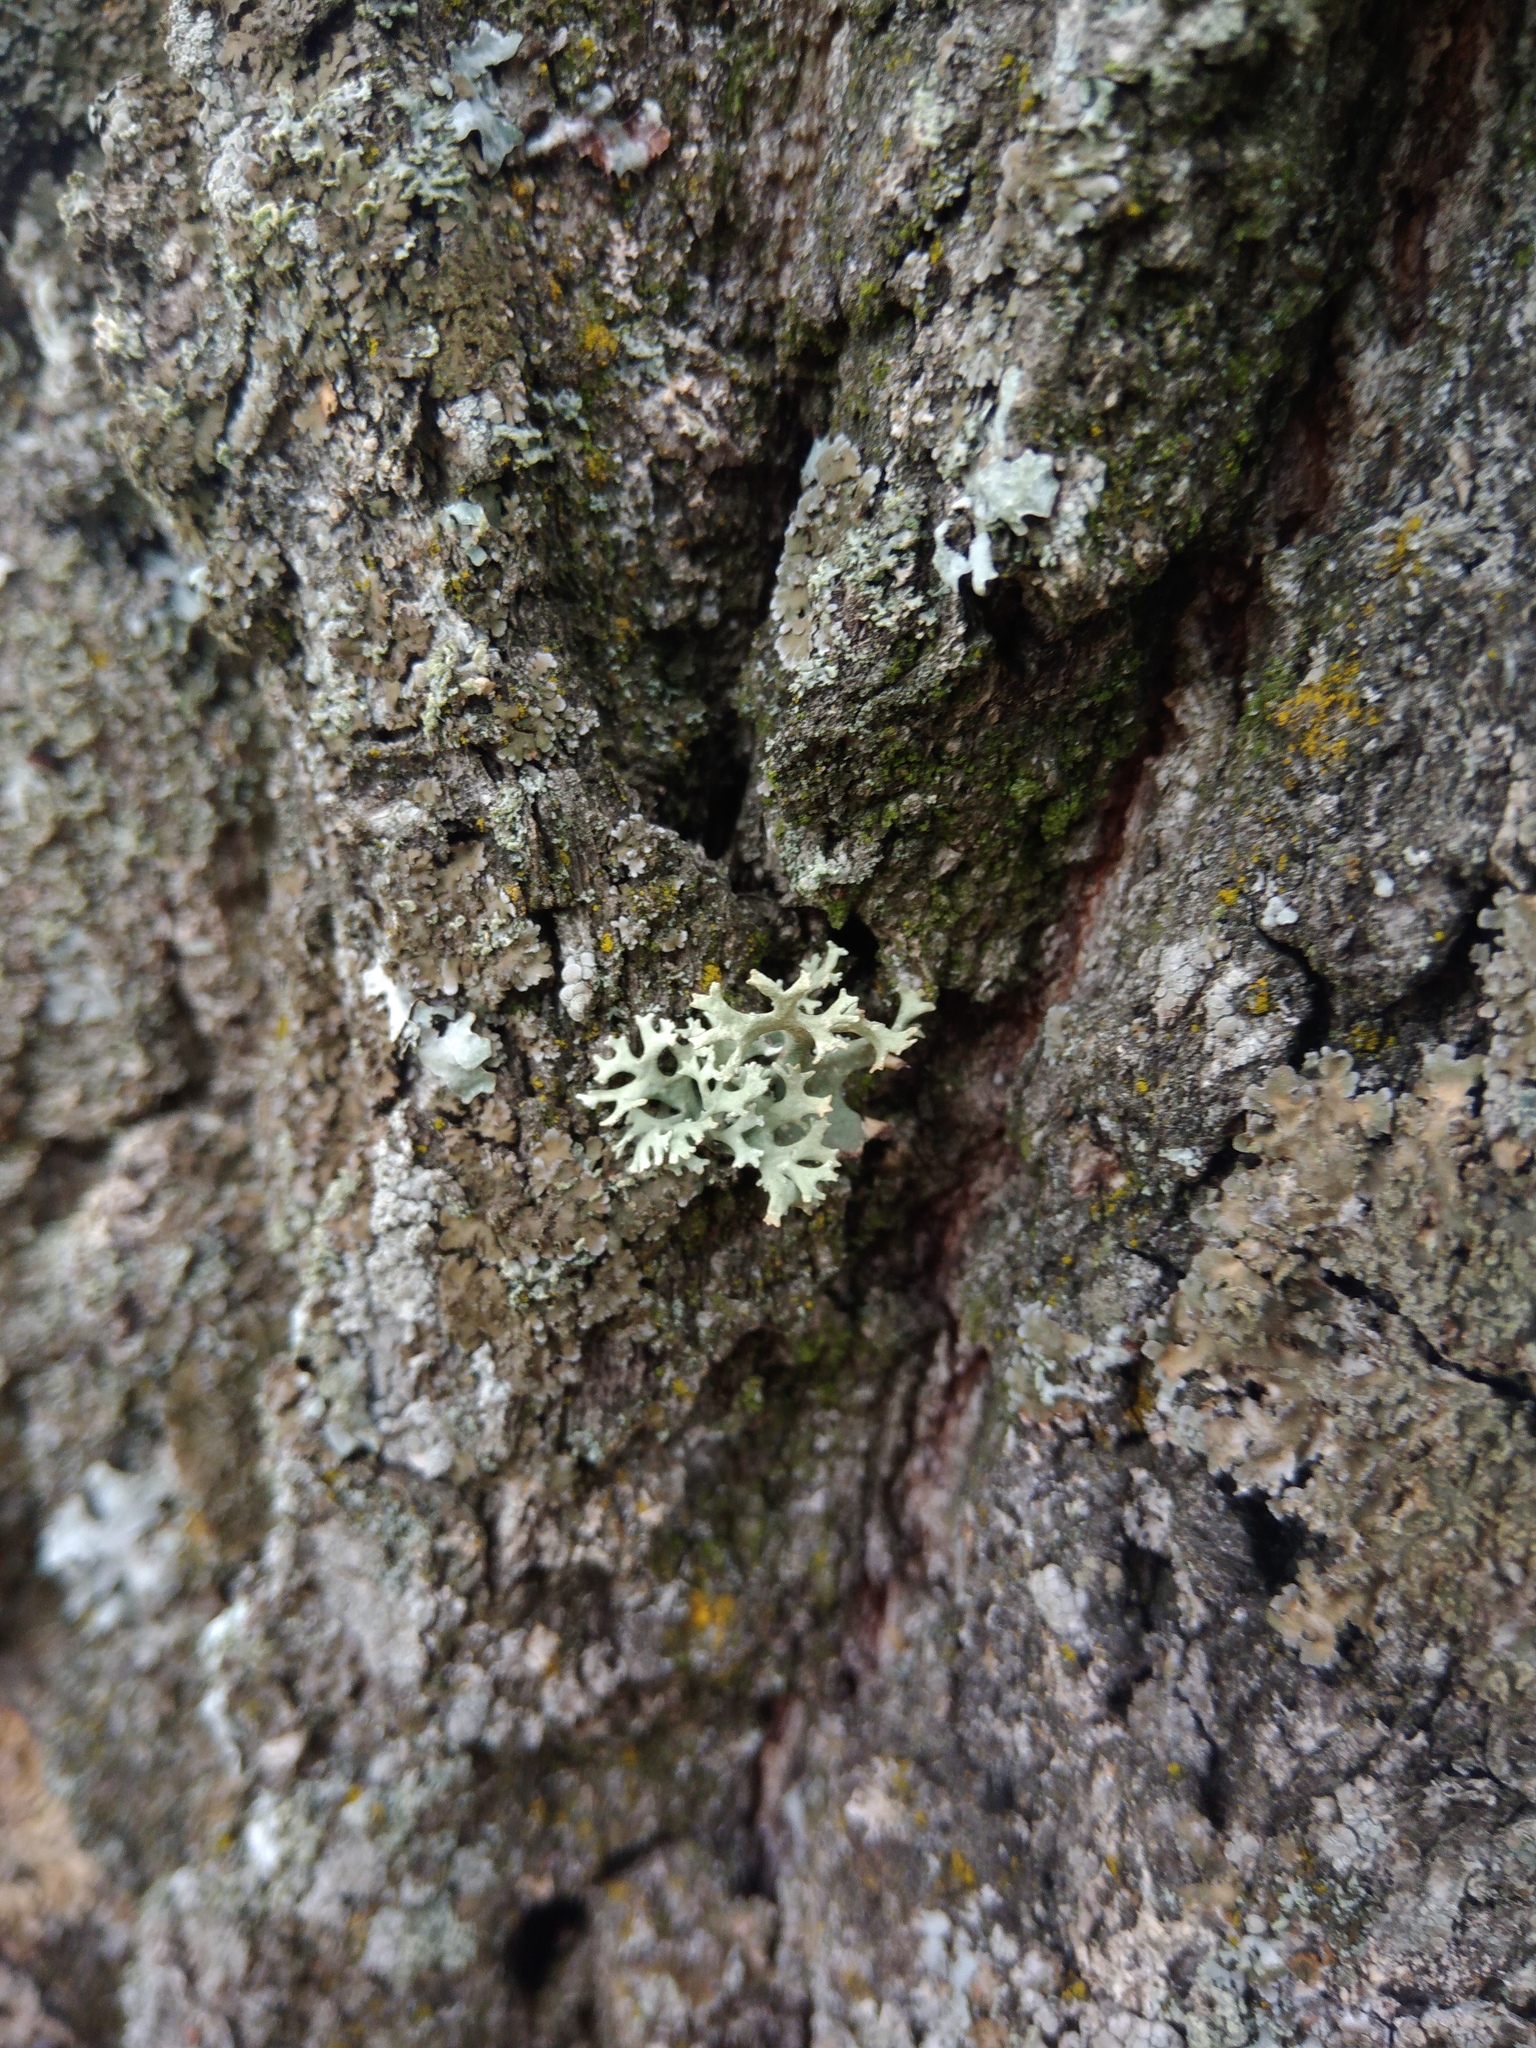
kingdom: Fungi
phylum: Ascomycota
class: Lecanoromycetes
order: Lecanorales
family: Parmeliaceae
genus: Evernia
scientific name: Evernia prunastri
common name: Oak moss
